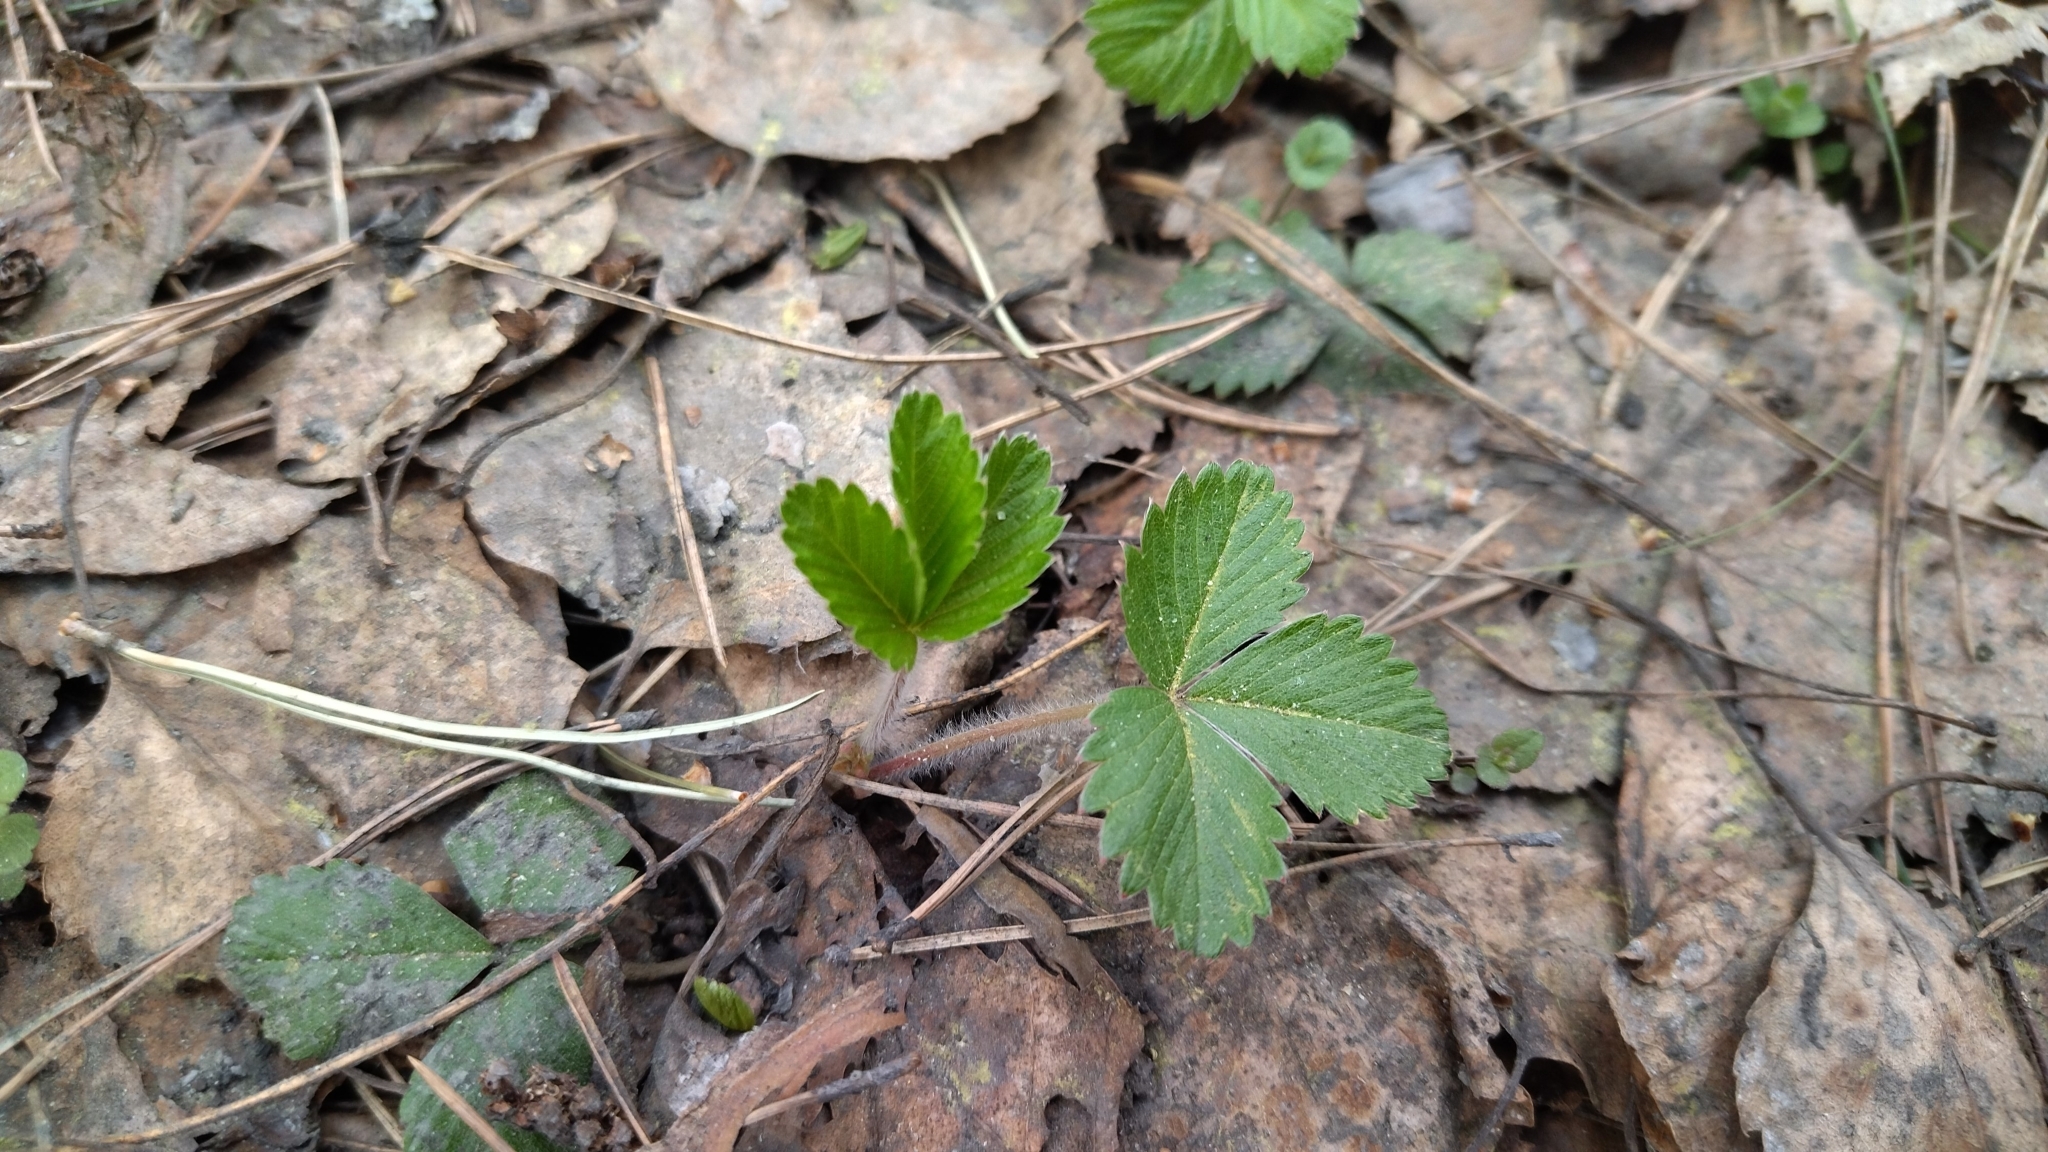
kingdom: Plantae
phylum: Tracheophyta
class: Magnoliopsida
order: Rosales
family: Rosaceae
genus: Fragaria
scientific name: Fragaria vesca
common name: Wild strawberry
